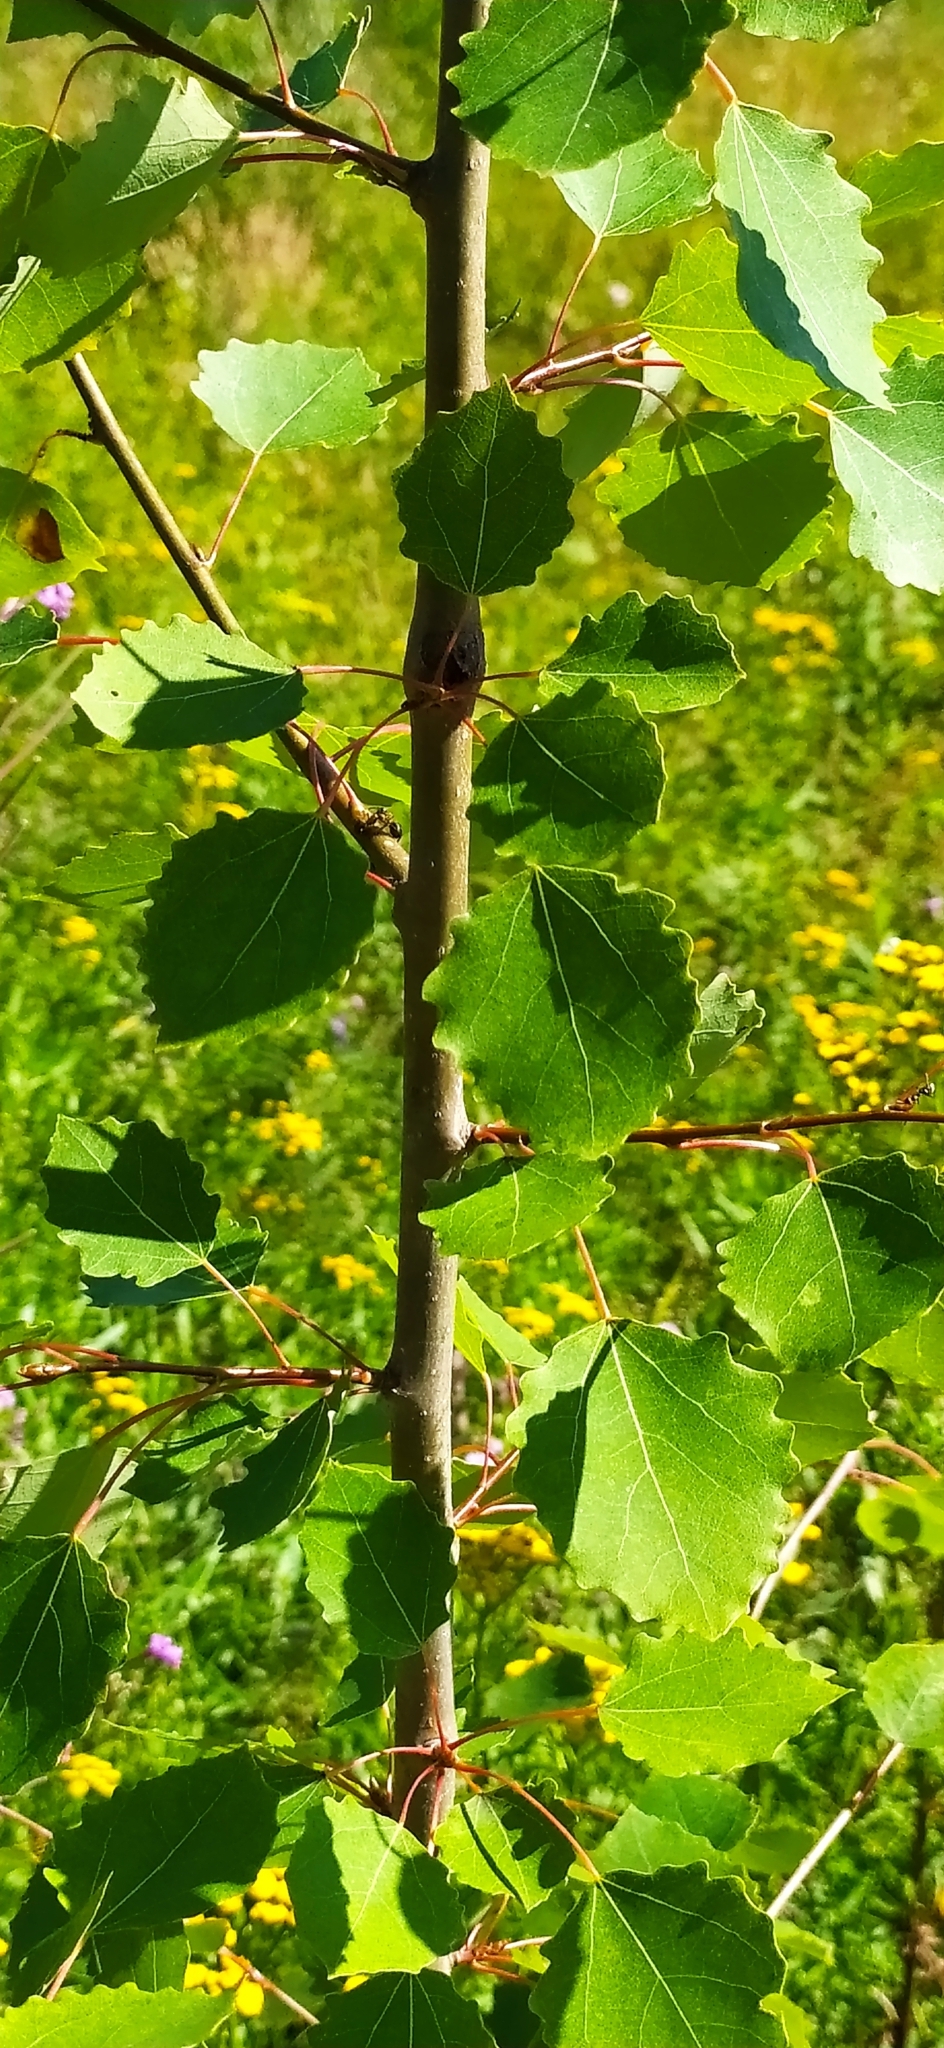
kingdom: Plantae
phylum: Tracheophyta
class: Magnoliopsida
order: Malpighiales
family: Salicaceae
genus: Populus
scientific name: Populus tremula
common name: European aspen
